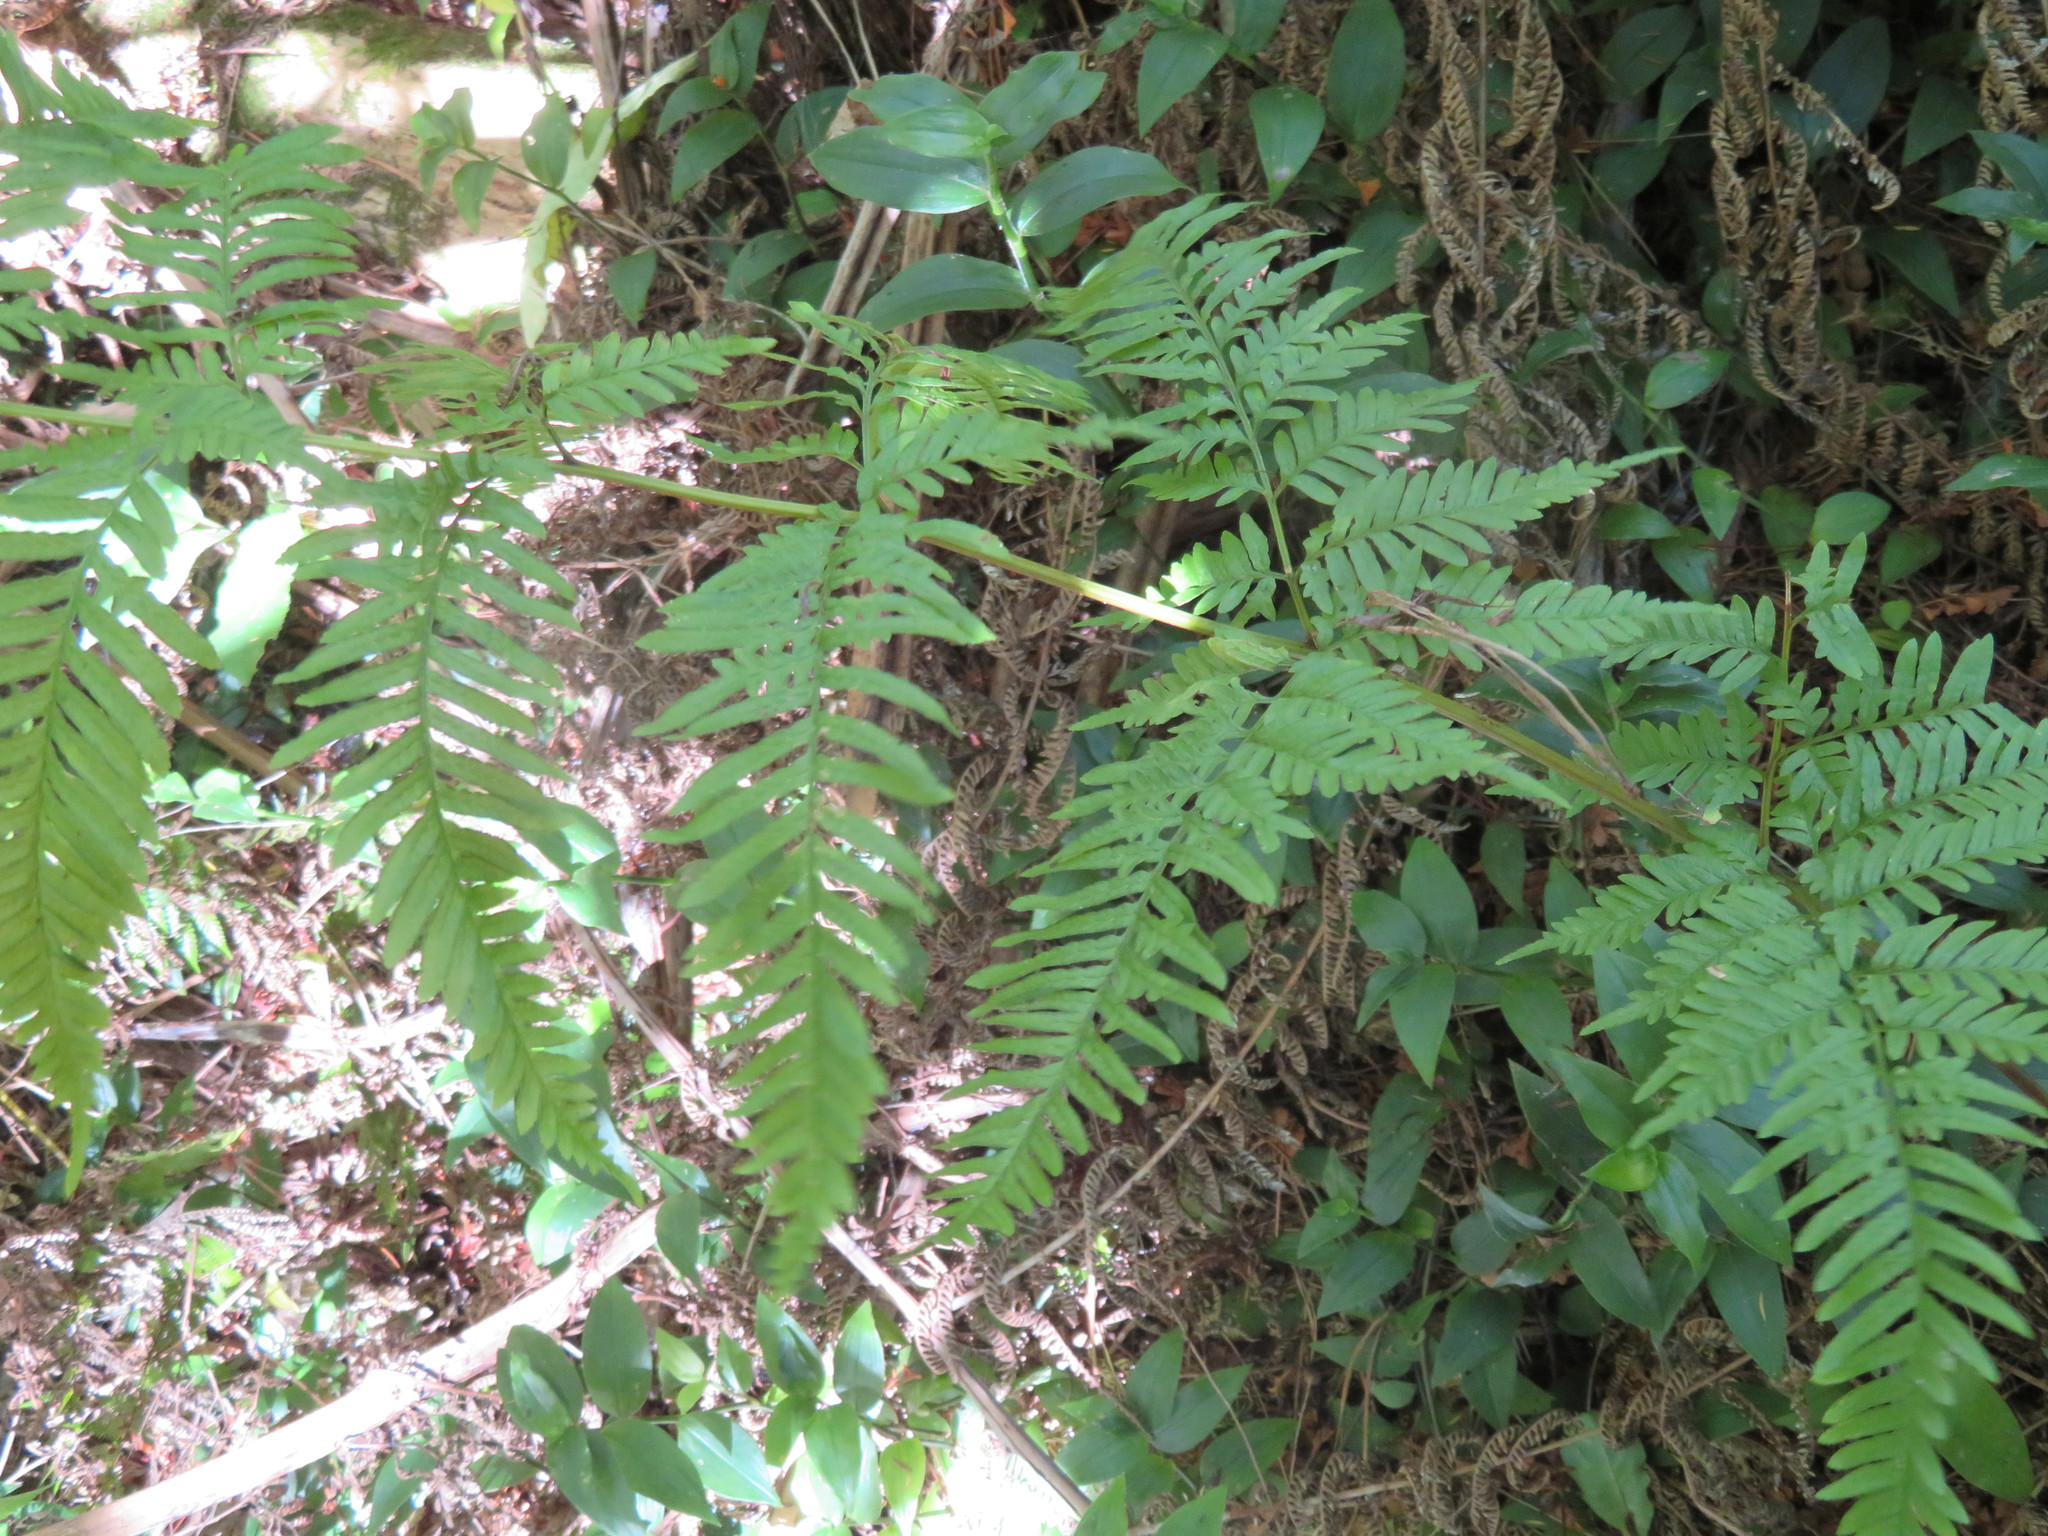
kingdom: Plantae
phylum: Tracheophyta
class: Polypodiopsida
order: Polypodiales
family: Pteridaceae
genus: Pteris
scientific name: Pteris tremula
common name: Australian brake
